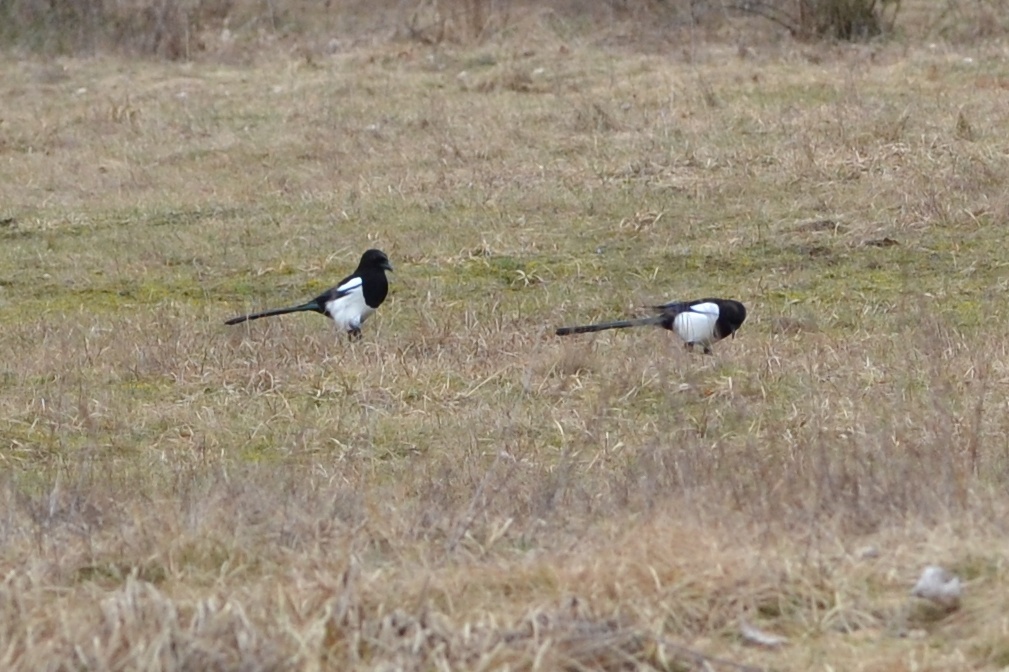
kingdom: Animalia
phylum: Chordata
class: Aves
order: Passeriformes
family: Corvidae
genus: Pica
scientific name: Pica pica
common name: Eurasian magpie
